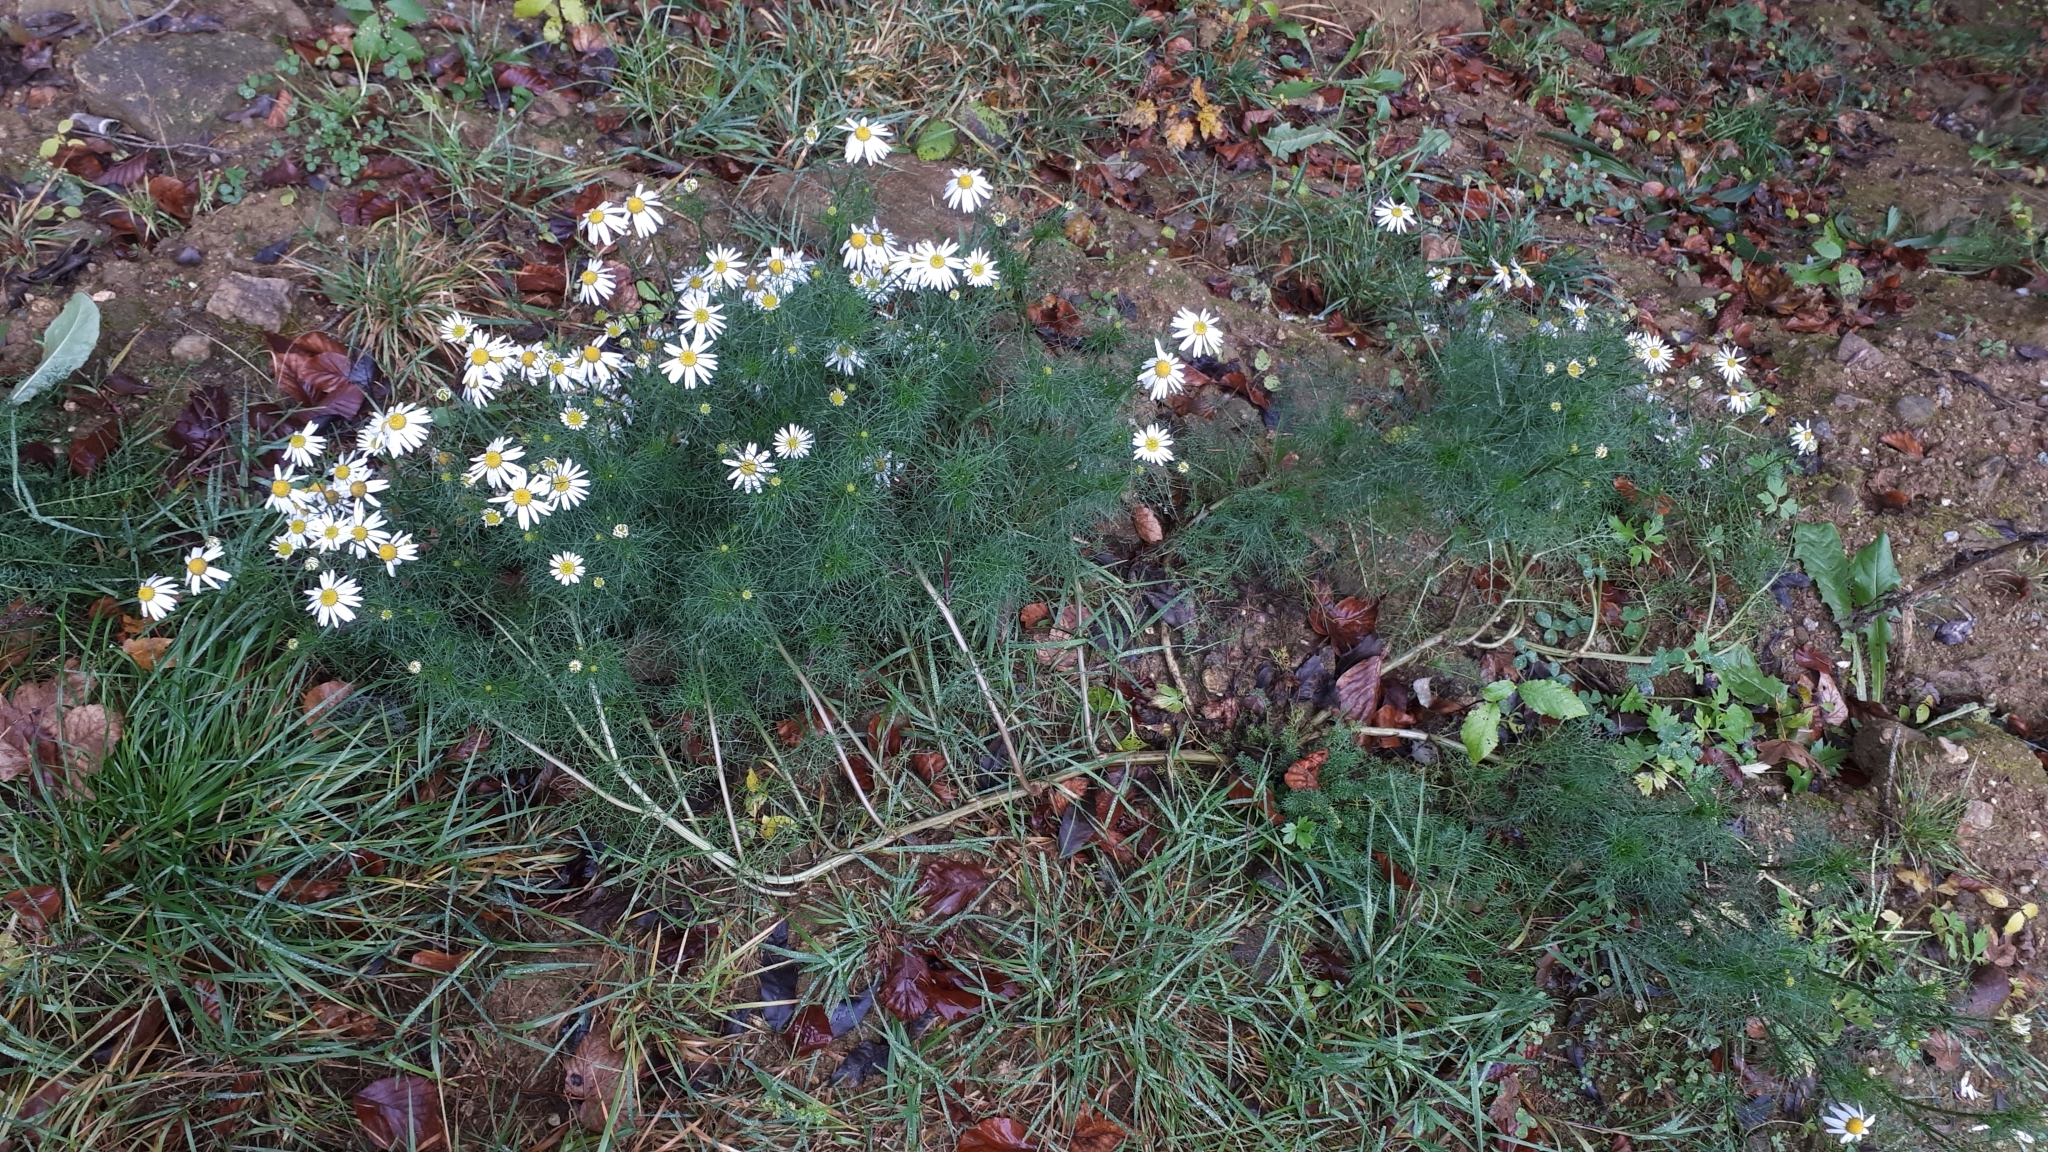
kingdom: Plantae
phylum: Tracheophyta
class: Magnoliopsida
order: Asterales
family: Asteraceae
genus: Tripleurospermum
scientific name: Tripleurospermum inodorum
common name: Scentless mayweed
